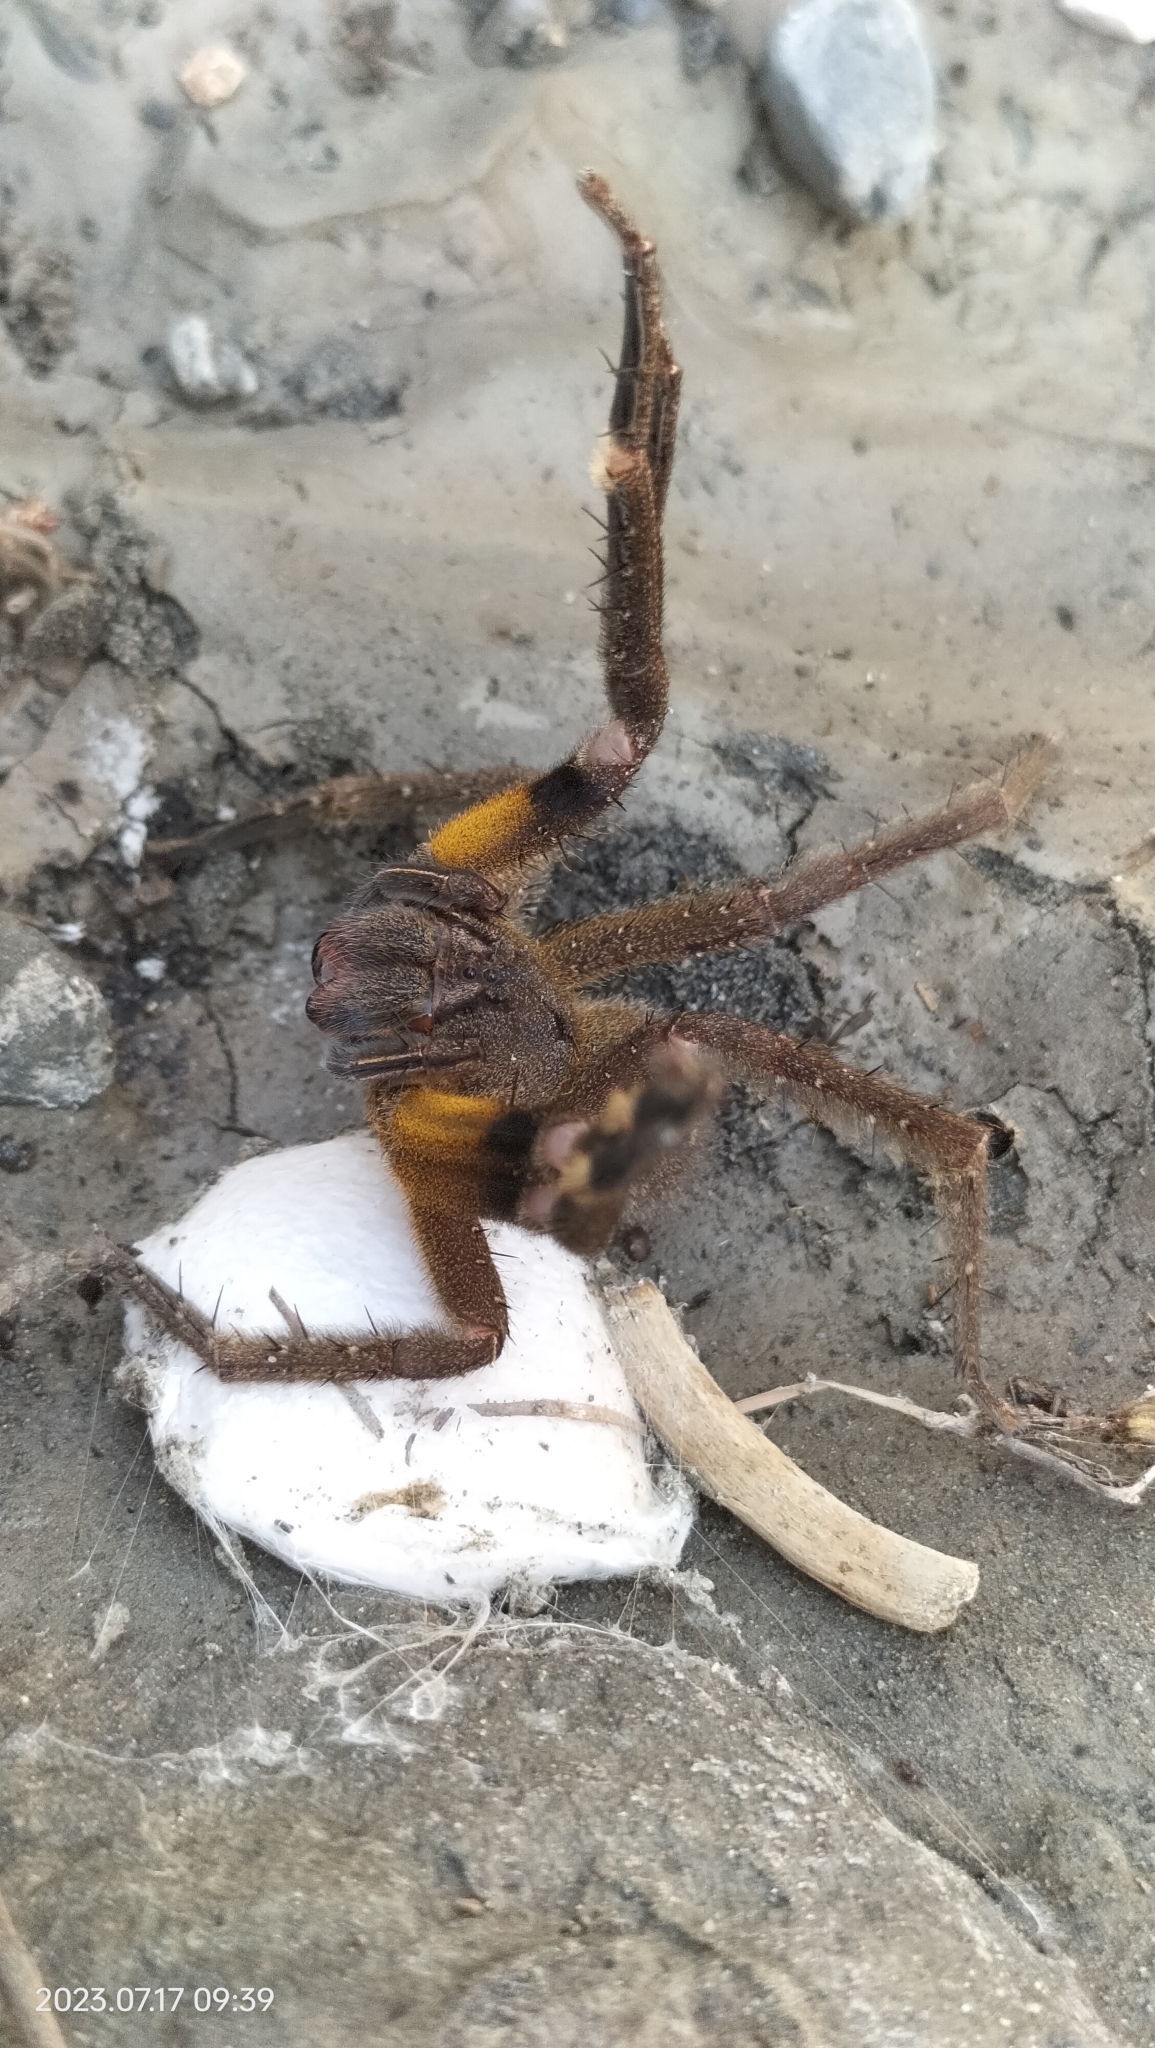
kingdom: Animalia
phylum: Arthropoda
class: Arachnida
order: Araneae
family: Ctenidae
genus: Phoneutria
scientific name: Phoneutria reidyi
